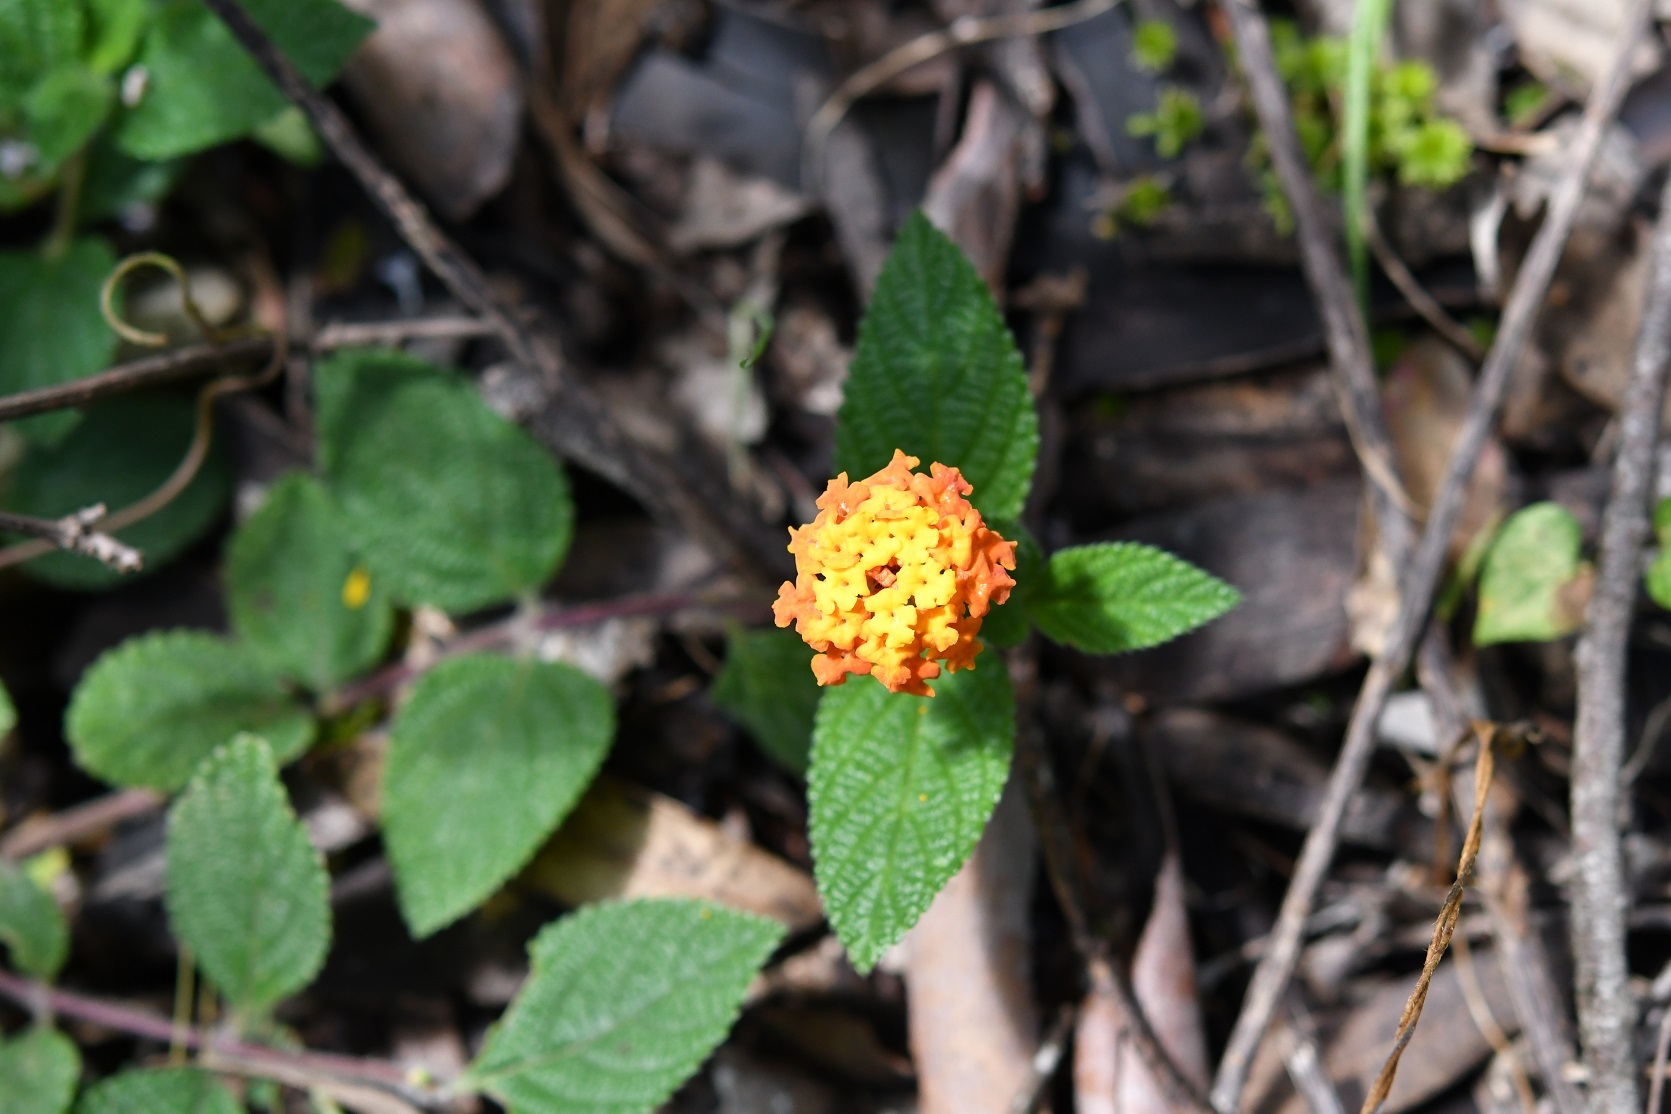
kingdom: Plantae
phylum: Tracheophyta
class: Magnoliopsida
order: Lamiales
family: Verbenaceae
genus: Lantana
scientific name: Lantana horrida
